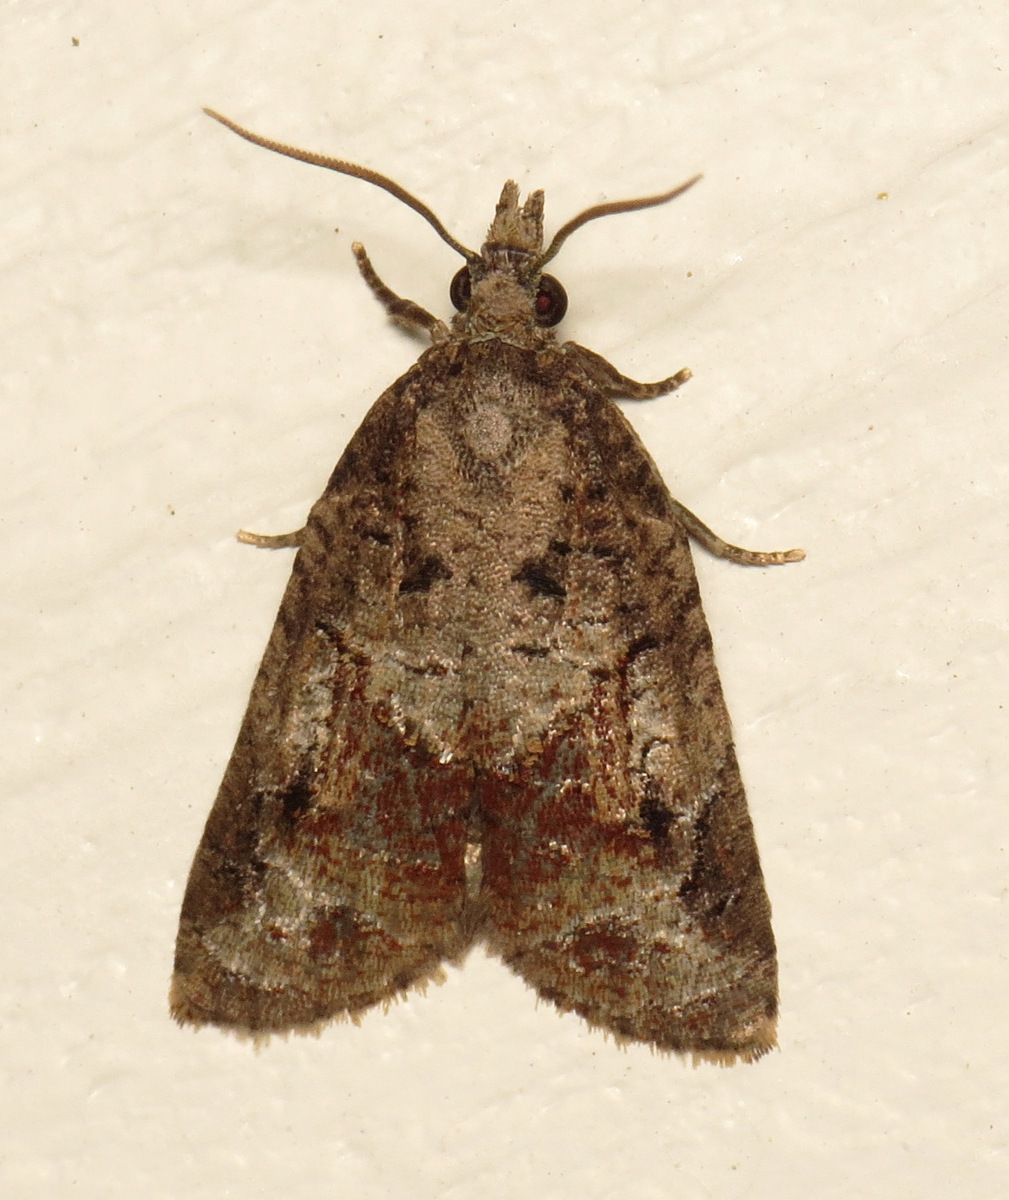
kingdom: Animalia
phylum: Arthropoda
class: Insecta
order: Lepidoptera
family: Tortricidae
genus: Platynota
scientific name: Platynota idaeusalis
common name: Tufted apple bud moth
